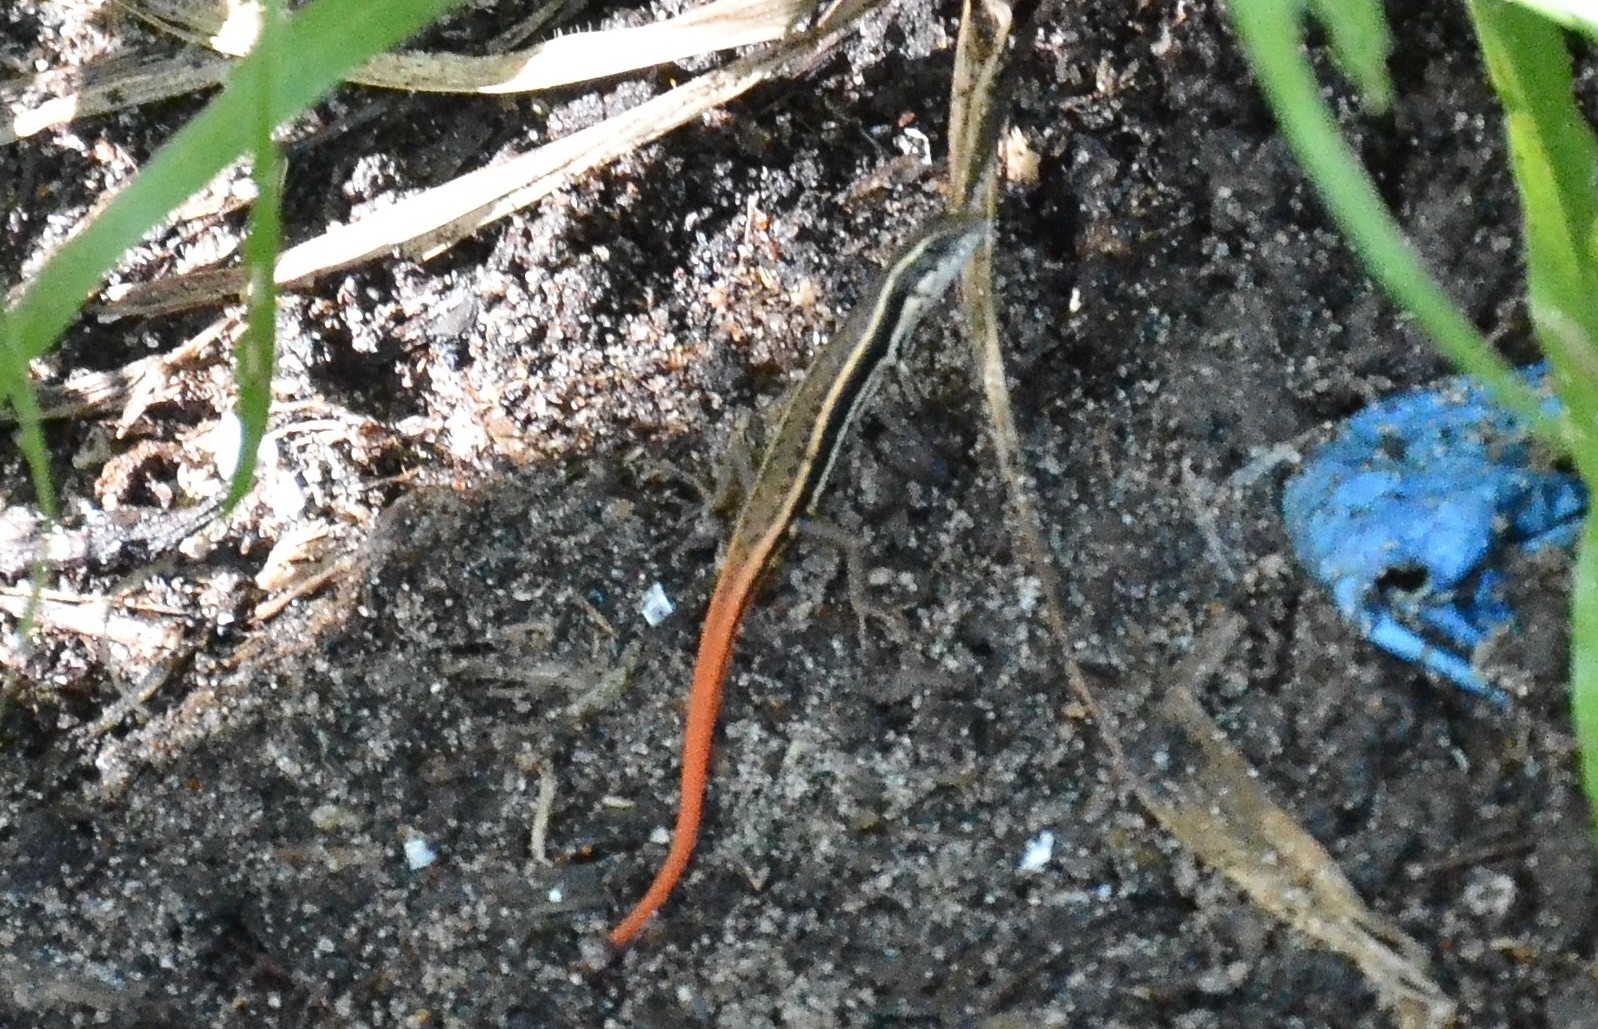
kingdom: Animalia
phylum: Chordata
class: Squamata
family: Scincidae
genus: Sphenomorphus
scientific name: Sphenomorphus dussumieri
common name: Dussumier's forest skink
